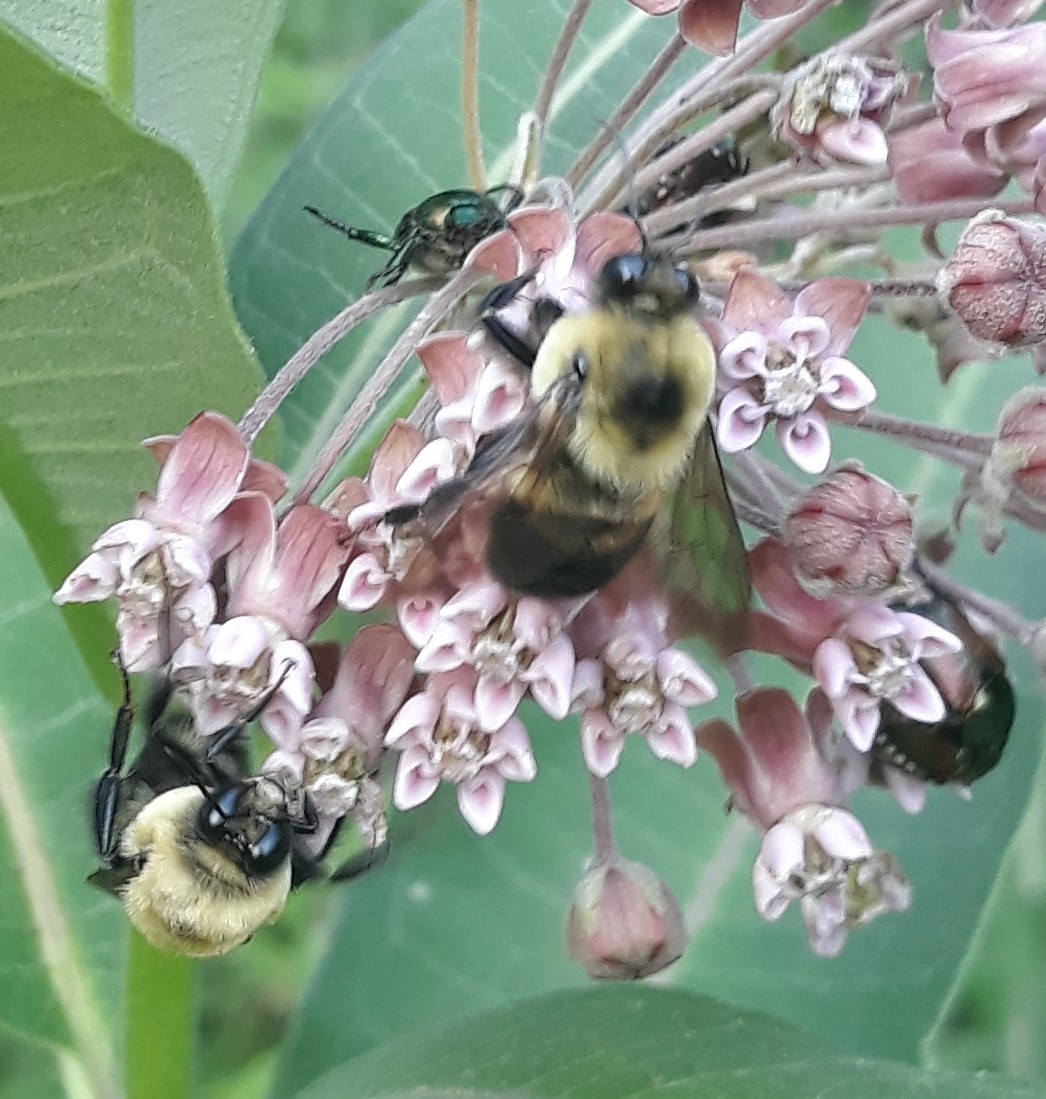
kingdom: Animalia
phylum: Arthropoda
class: Insecta
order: Hymenoptera
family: Apidae
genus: Bombus
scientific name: Bombus griseocollis
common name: Brown-belted bumble bee
